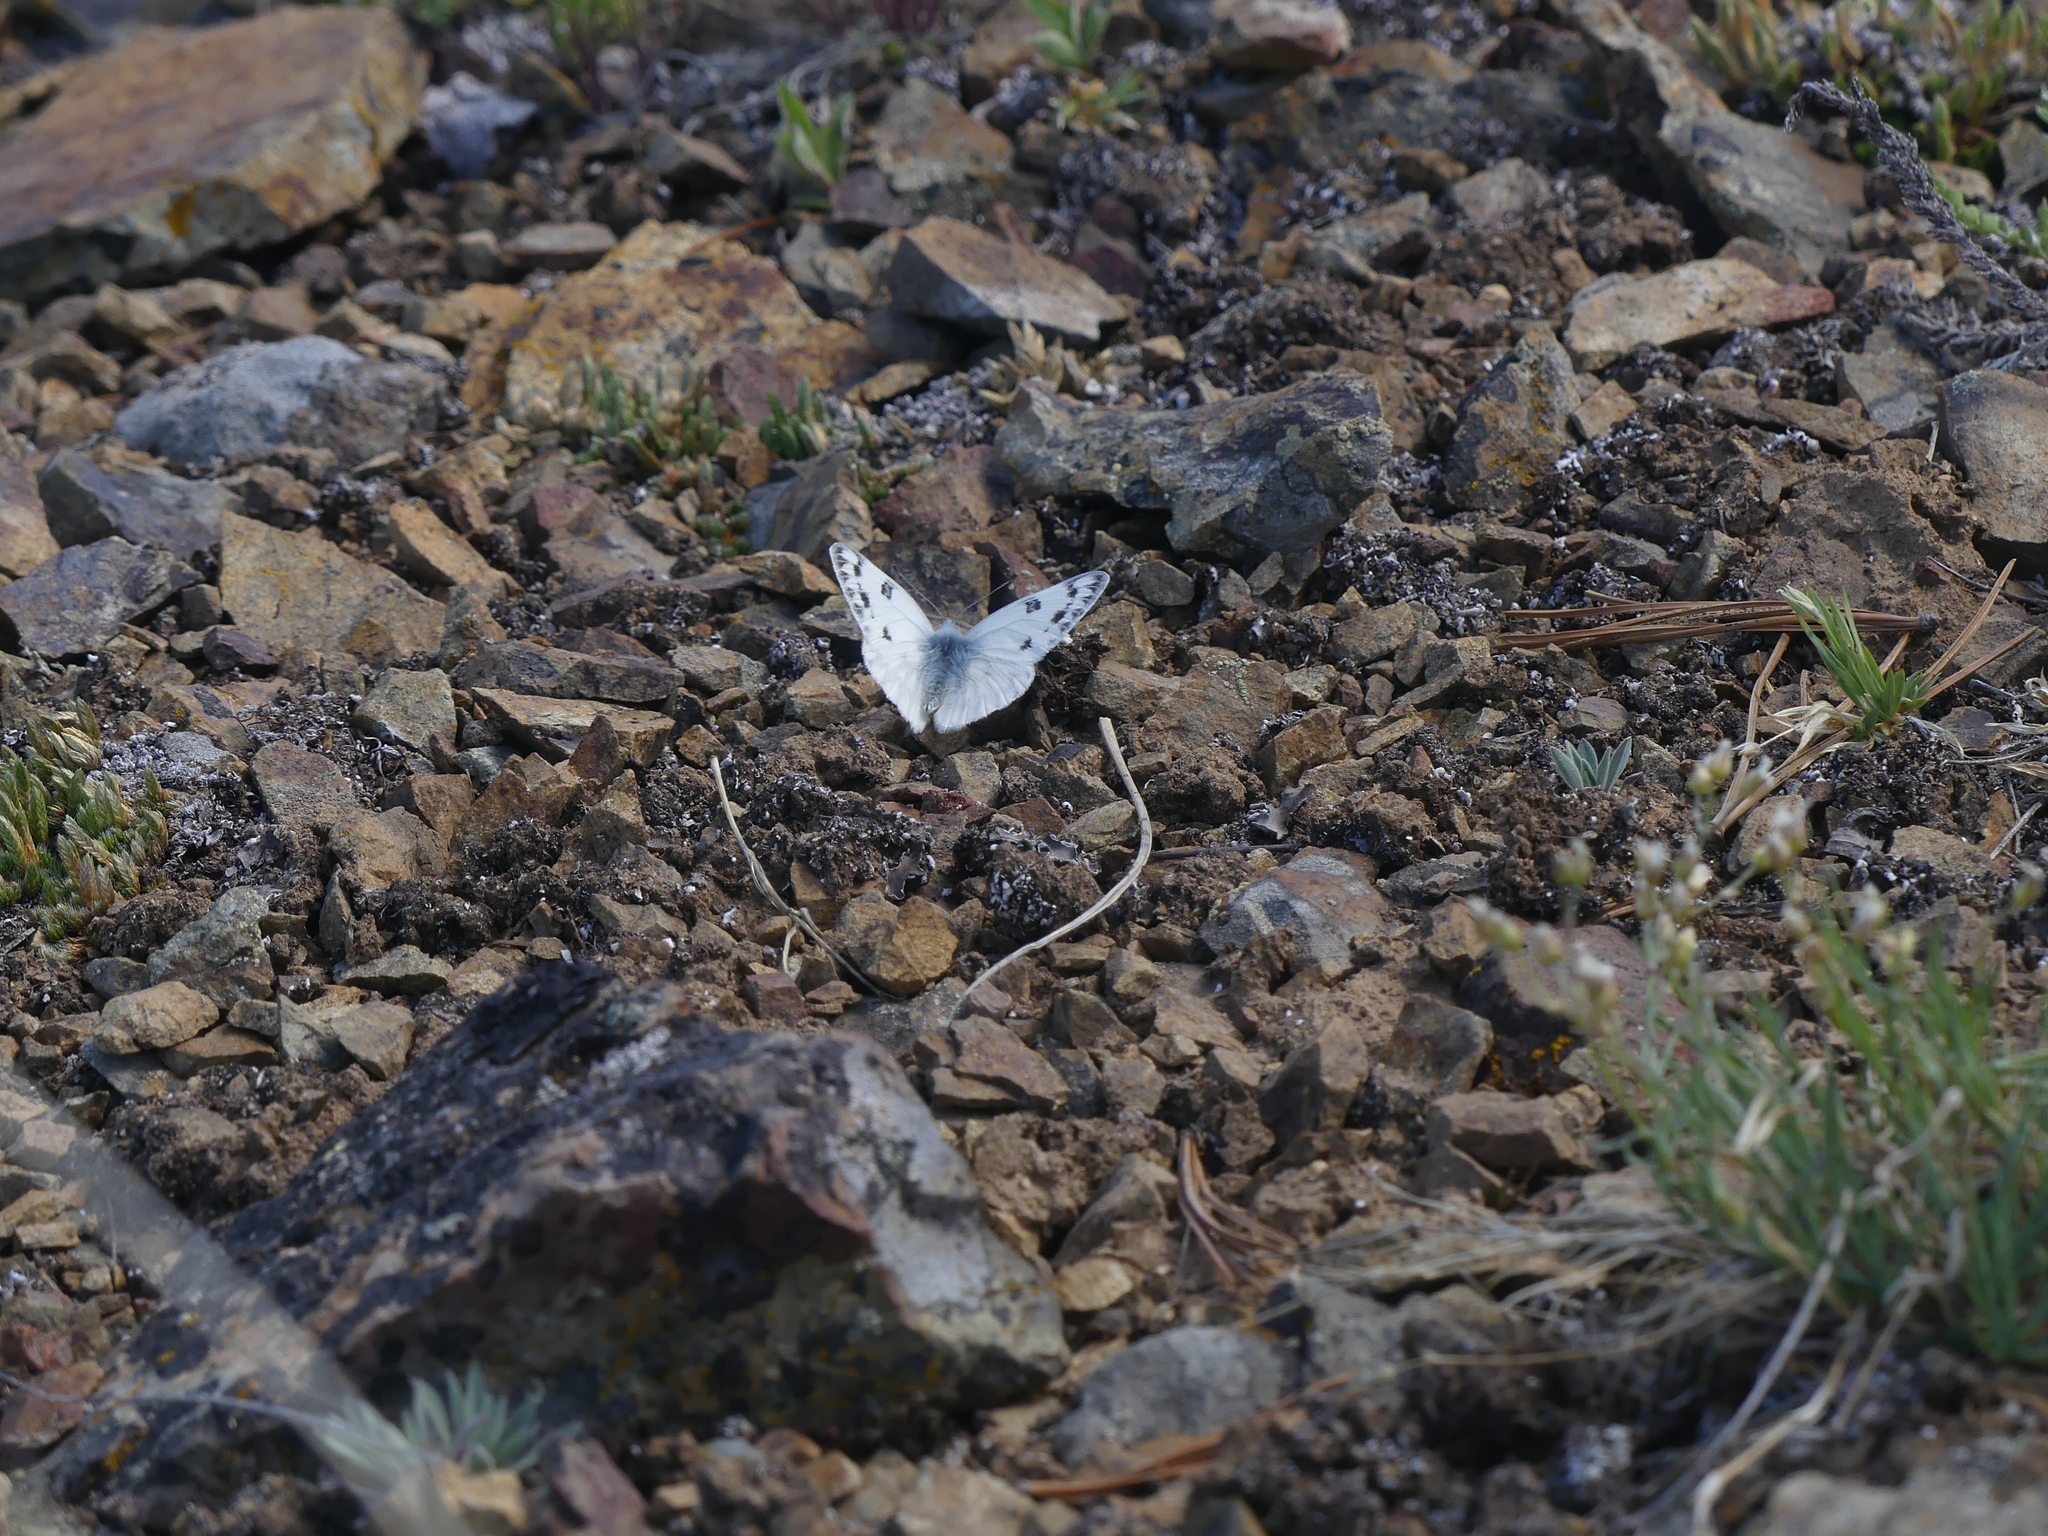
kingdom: Animalia
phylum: Arthropoda
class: Insecta
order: Lepidoptera
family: Pieridae
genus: Pontia
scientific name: Pontia occidentalis
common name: Western white
